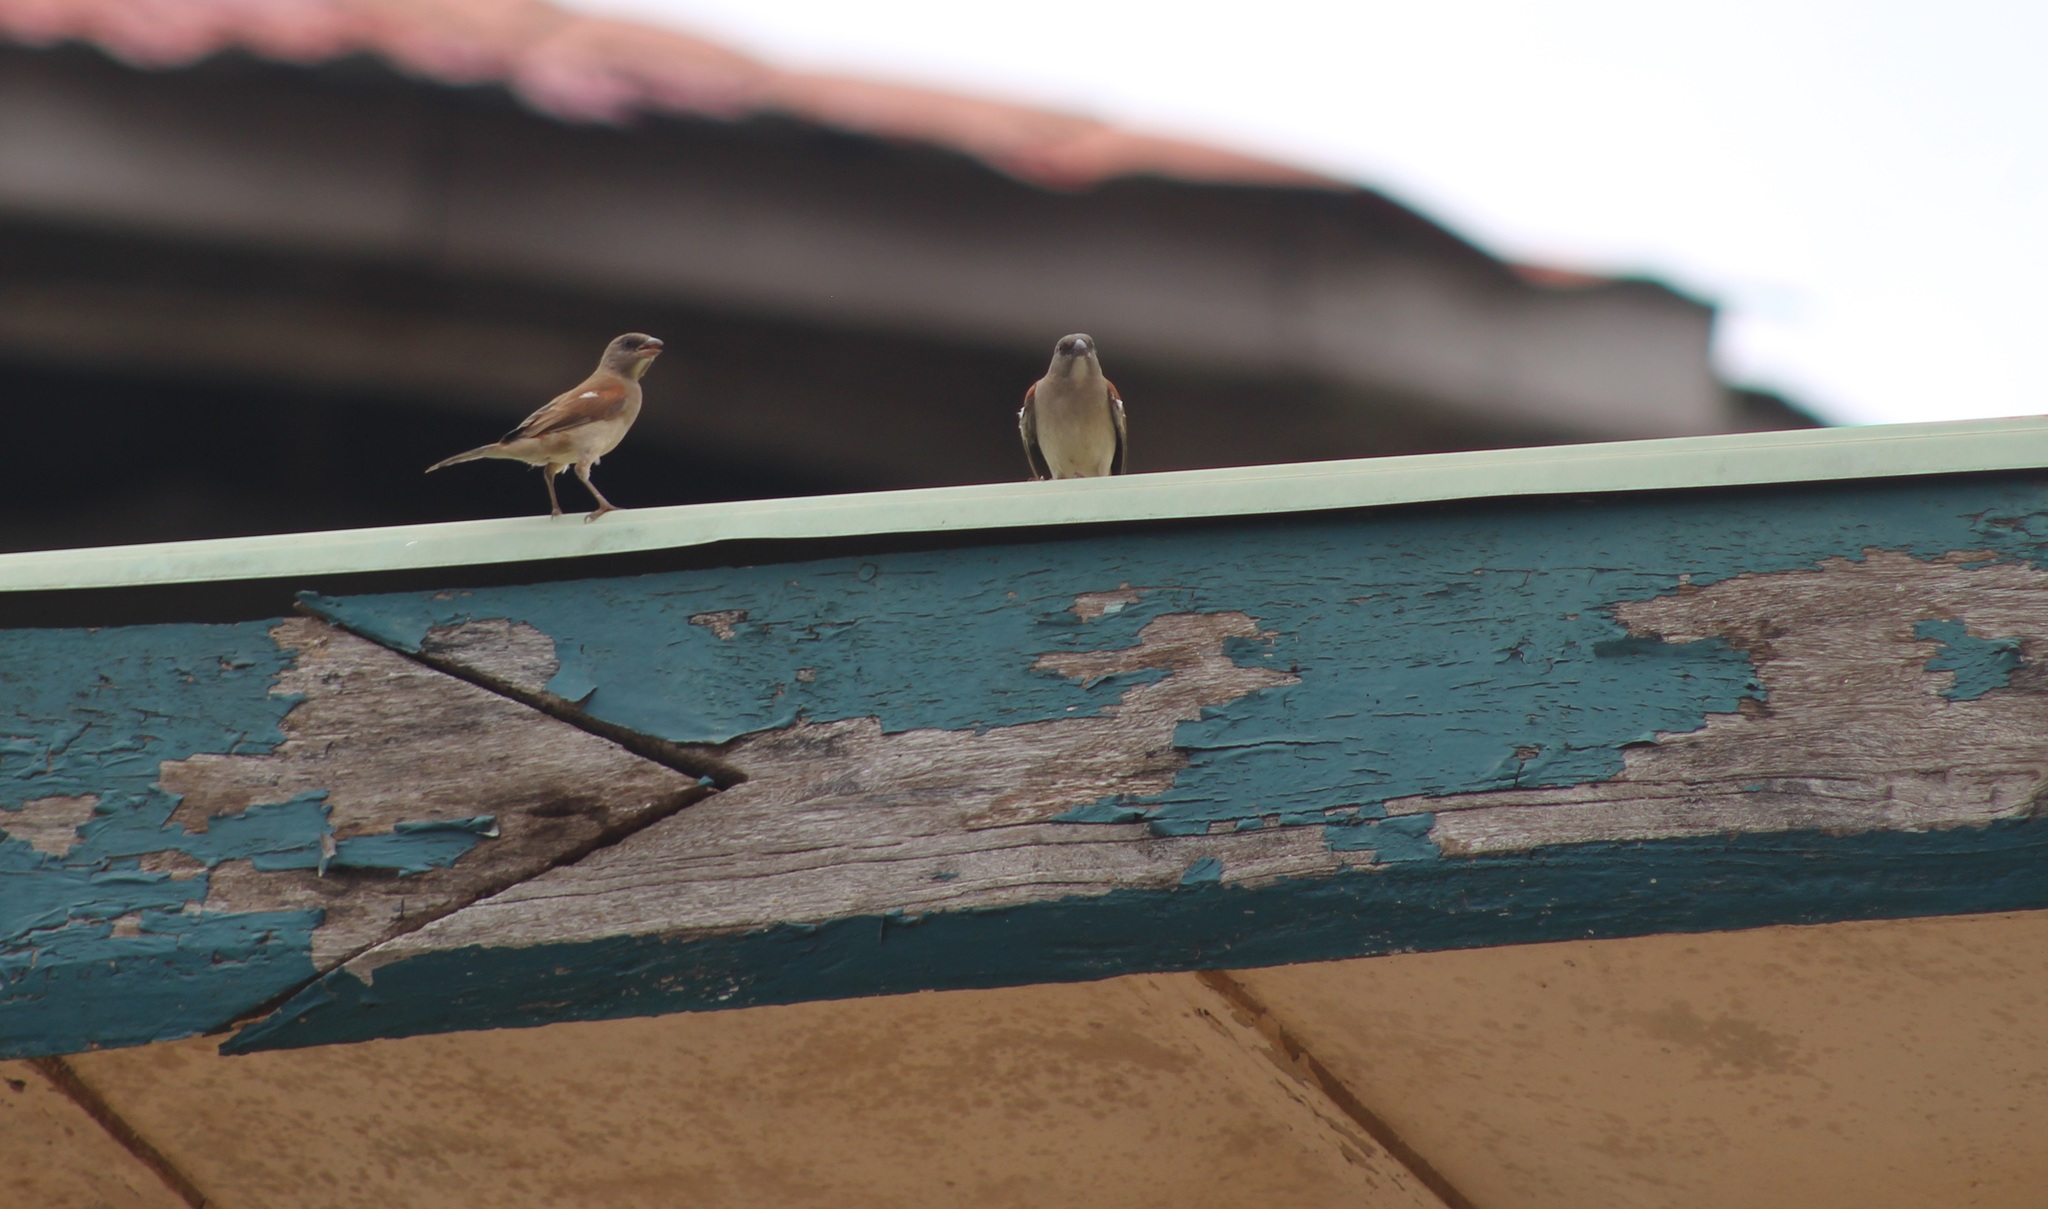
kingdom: Animalia
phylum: Chordata
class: Aves
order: Passeriformes
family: Passeridae
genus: Passer
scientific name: Passer griseus
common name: Northern grey-headed sparrow
